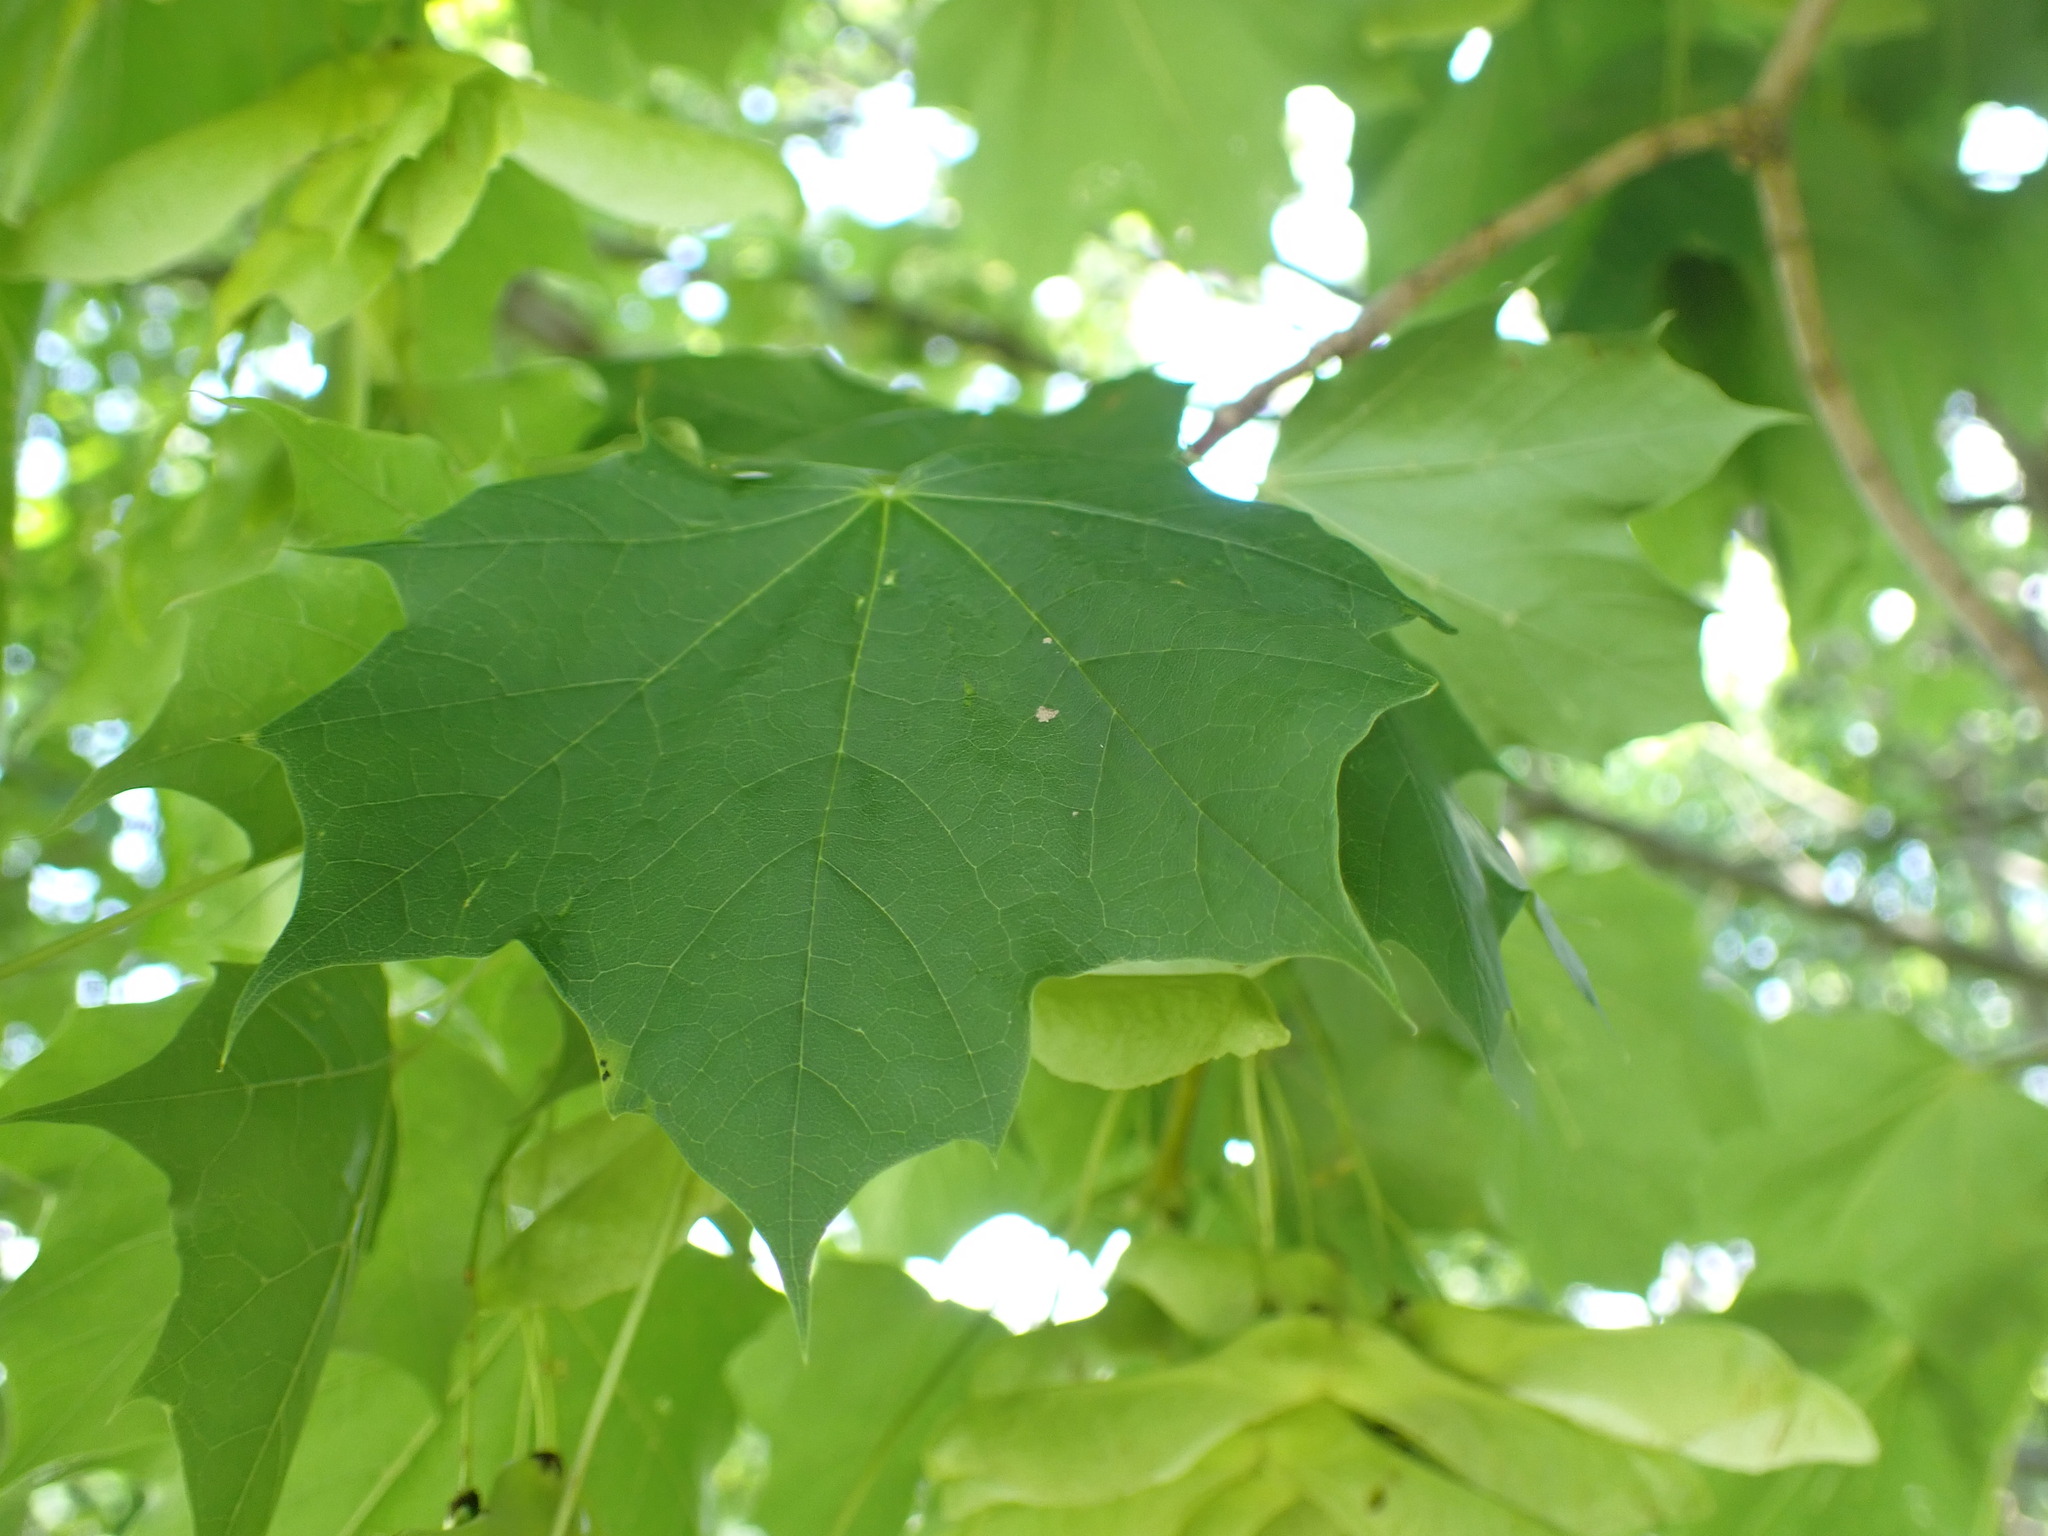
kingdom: Plantae
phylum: Tracheophyta
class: Magnoliopsida
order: Sapindales
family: Sapindaceae
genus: Acer
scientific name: Acer platanoides
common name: Norway maple
